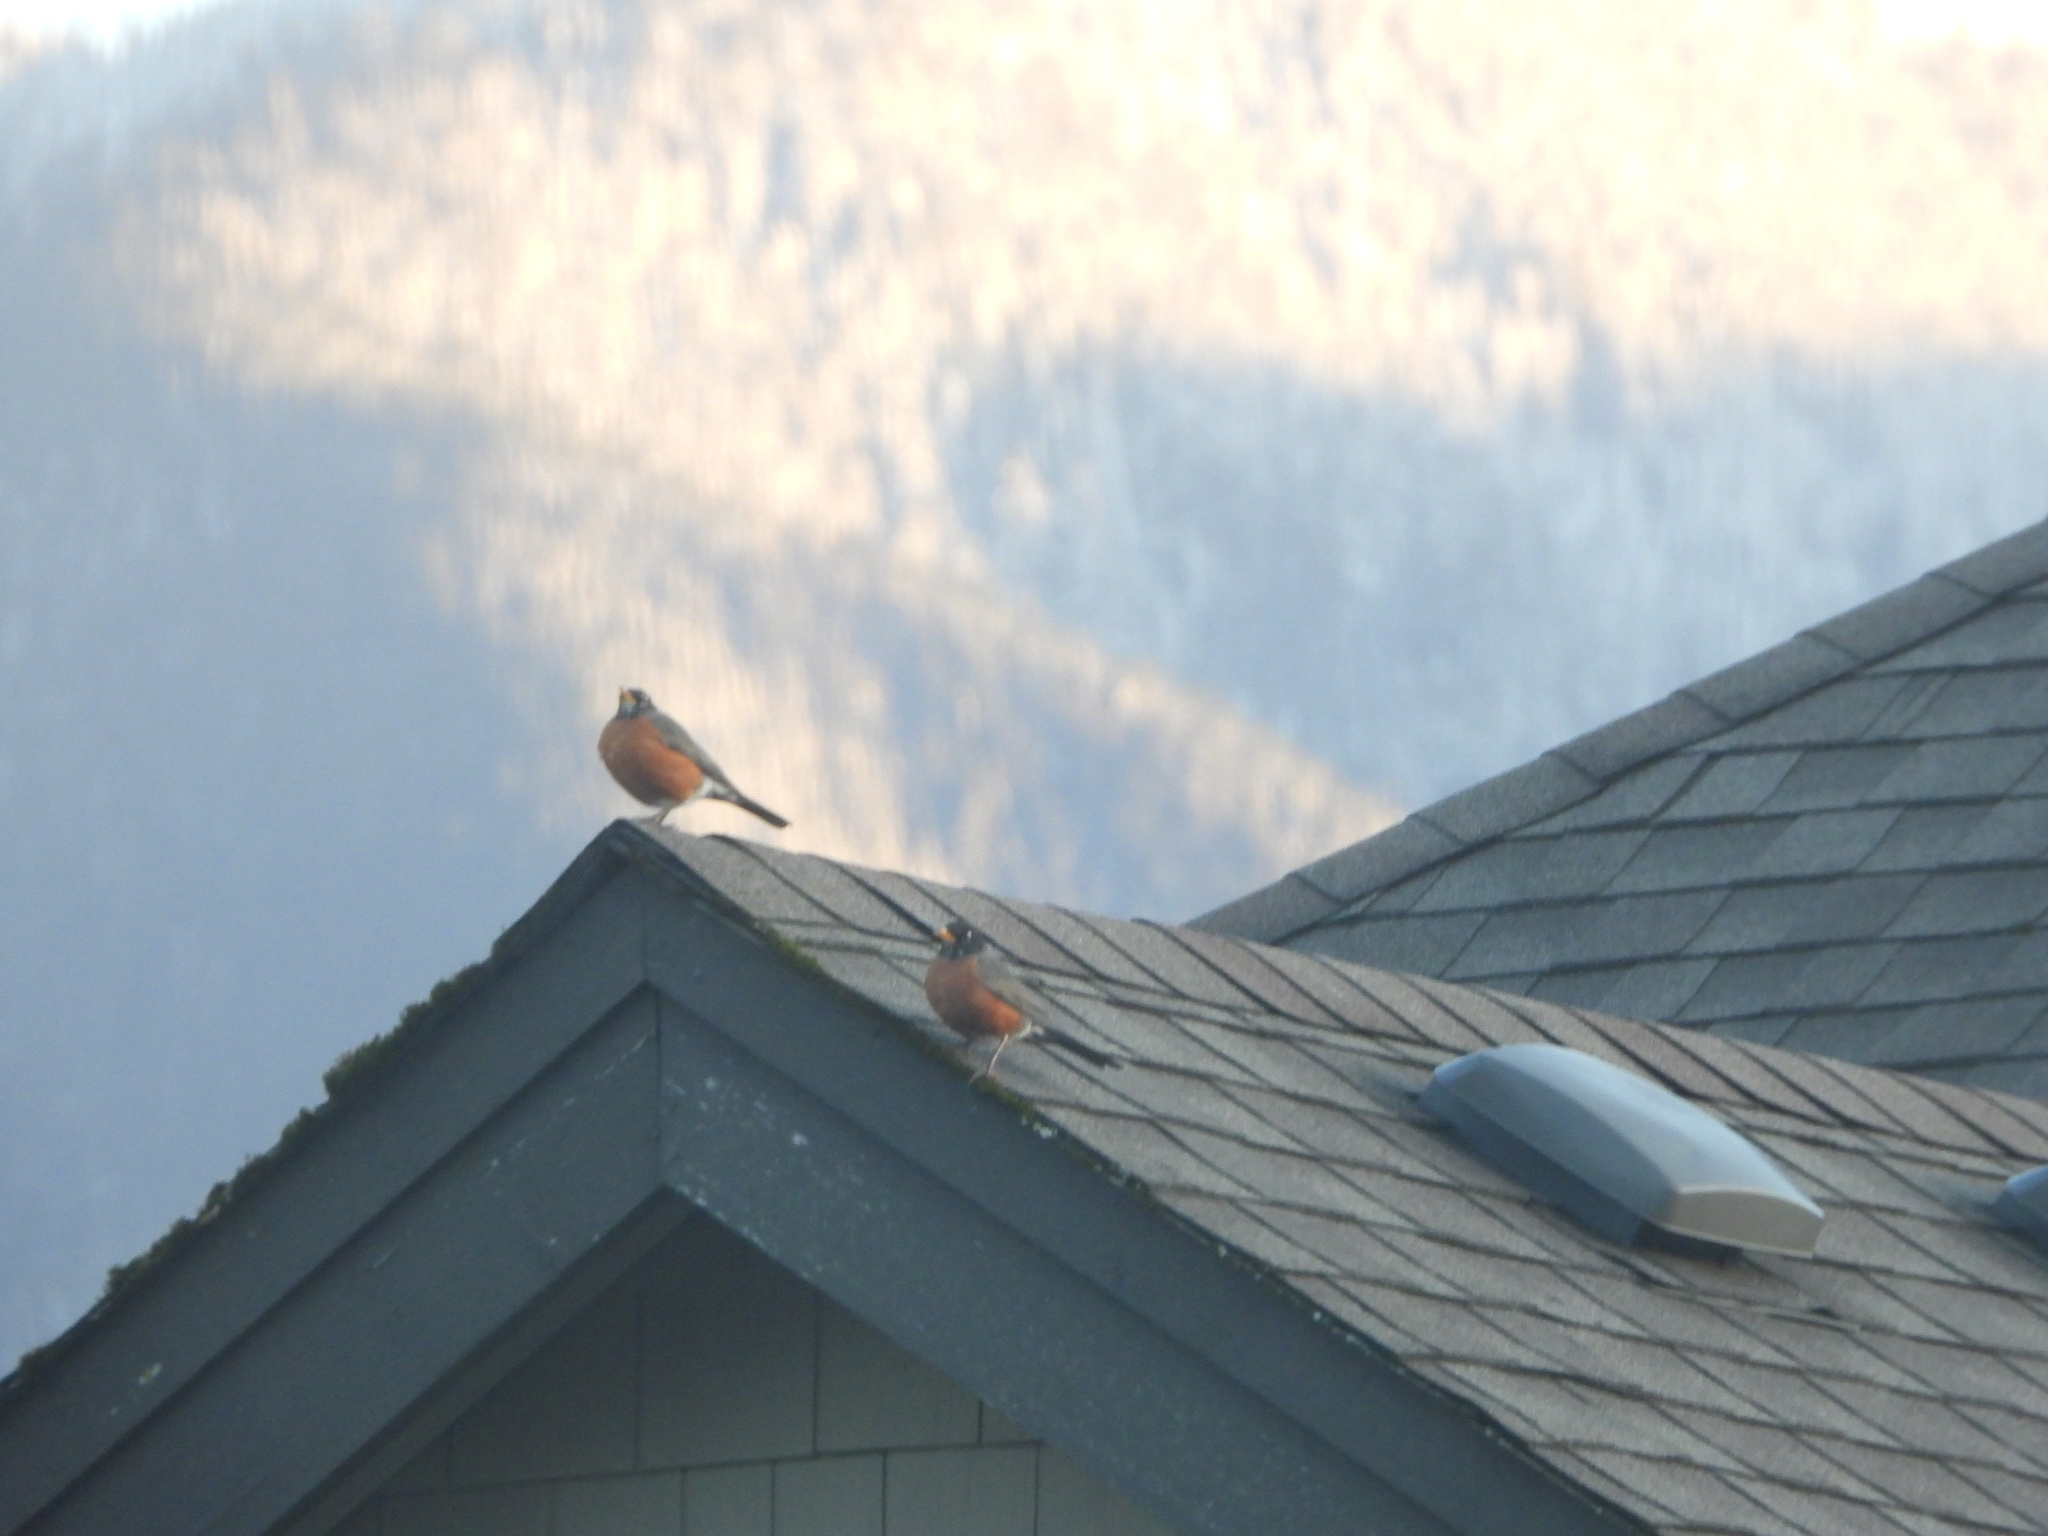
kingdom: Animalia
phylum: Chordata
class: Aves
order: Passeriformes
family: Turdidae
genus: Turdus
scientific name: Turdus migratorius
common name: American robin
